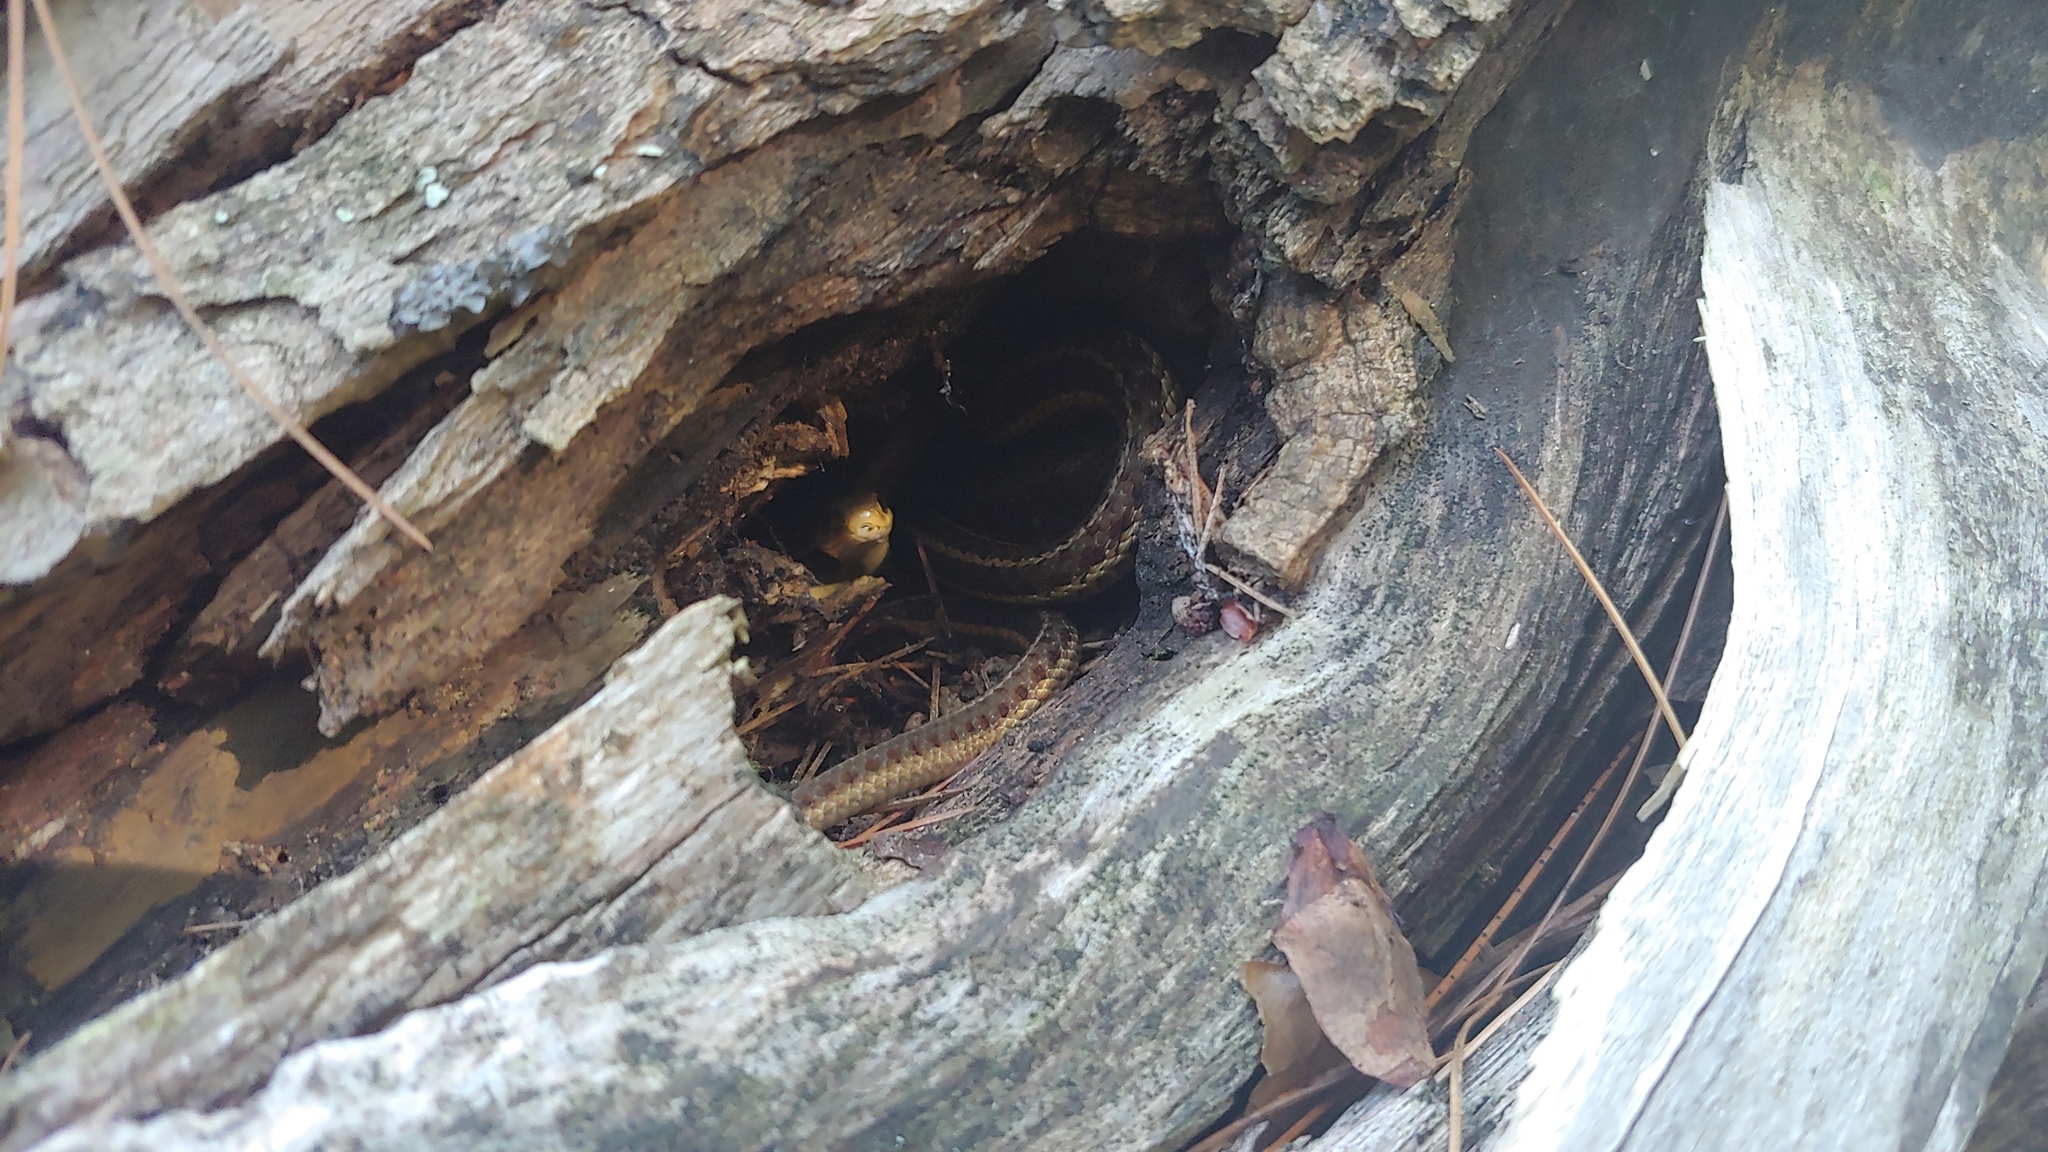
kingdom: Animalia
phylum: Chordata
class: Squamata
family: Colubridae
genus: Thamnophis
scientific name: Thamnophis sirtalis
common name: Common garter snake
